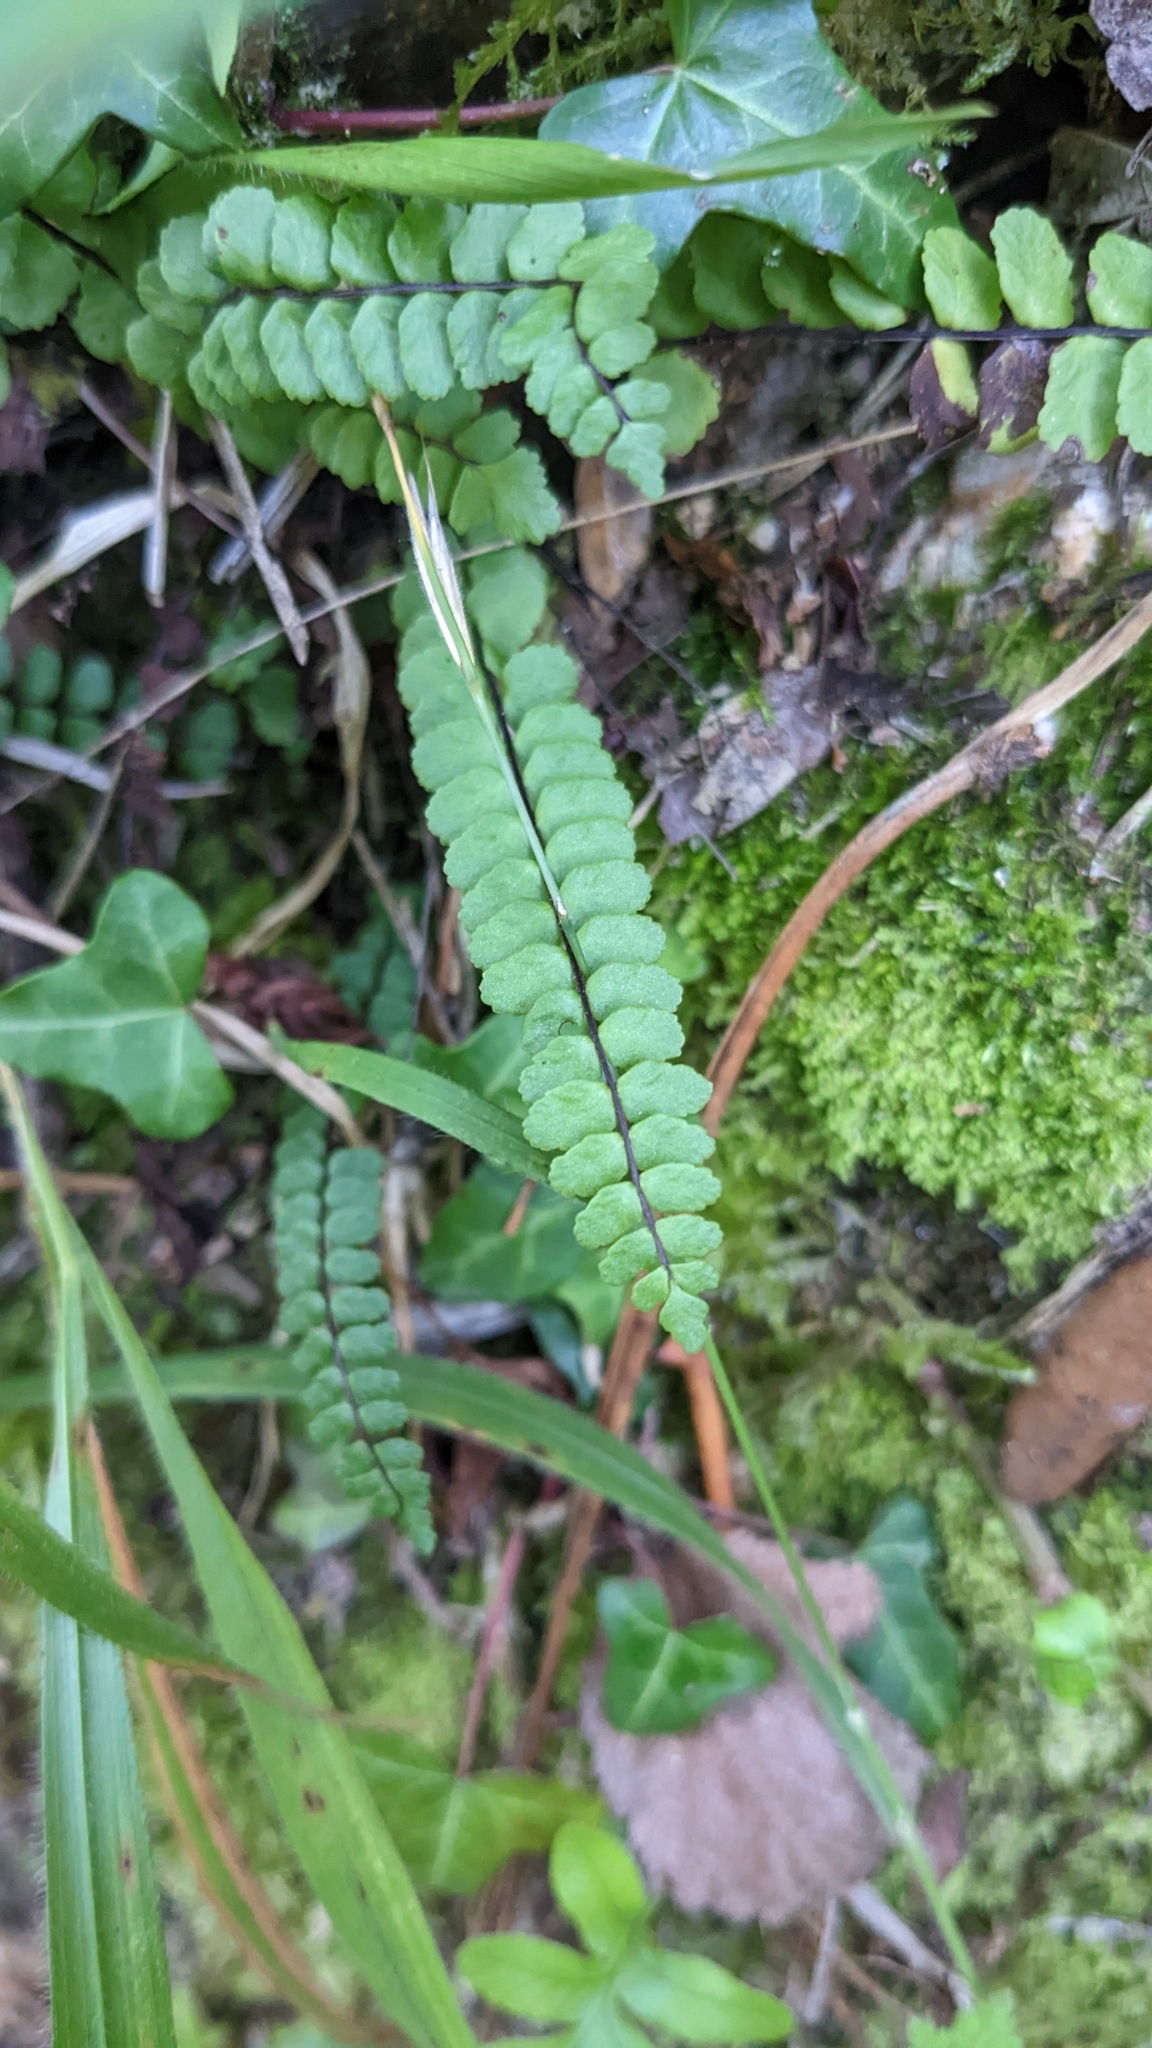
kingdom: Plantae
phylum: Tracheophyta
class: Polypodiopsida
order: Polypodiales
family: Aspleniaceae
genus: Asplenium
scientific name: Asplenium trichomanes
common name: Maidenhair spleenwort
